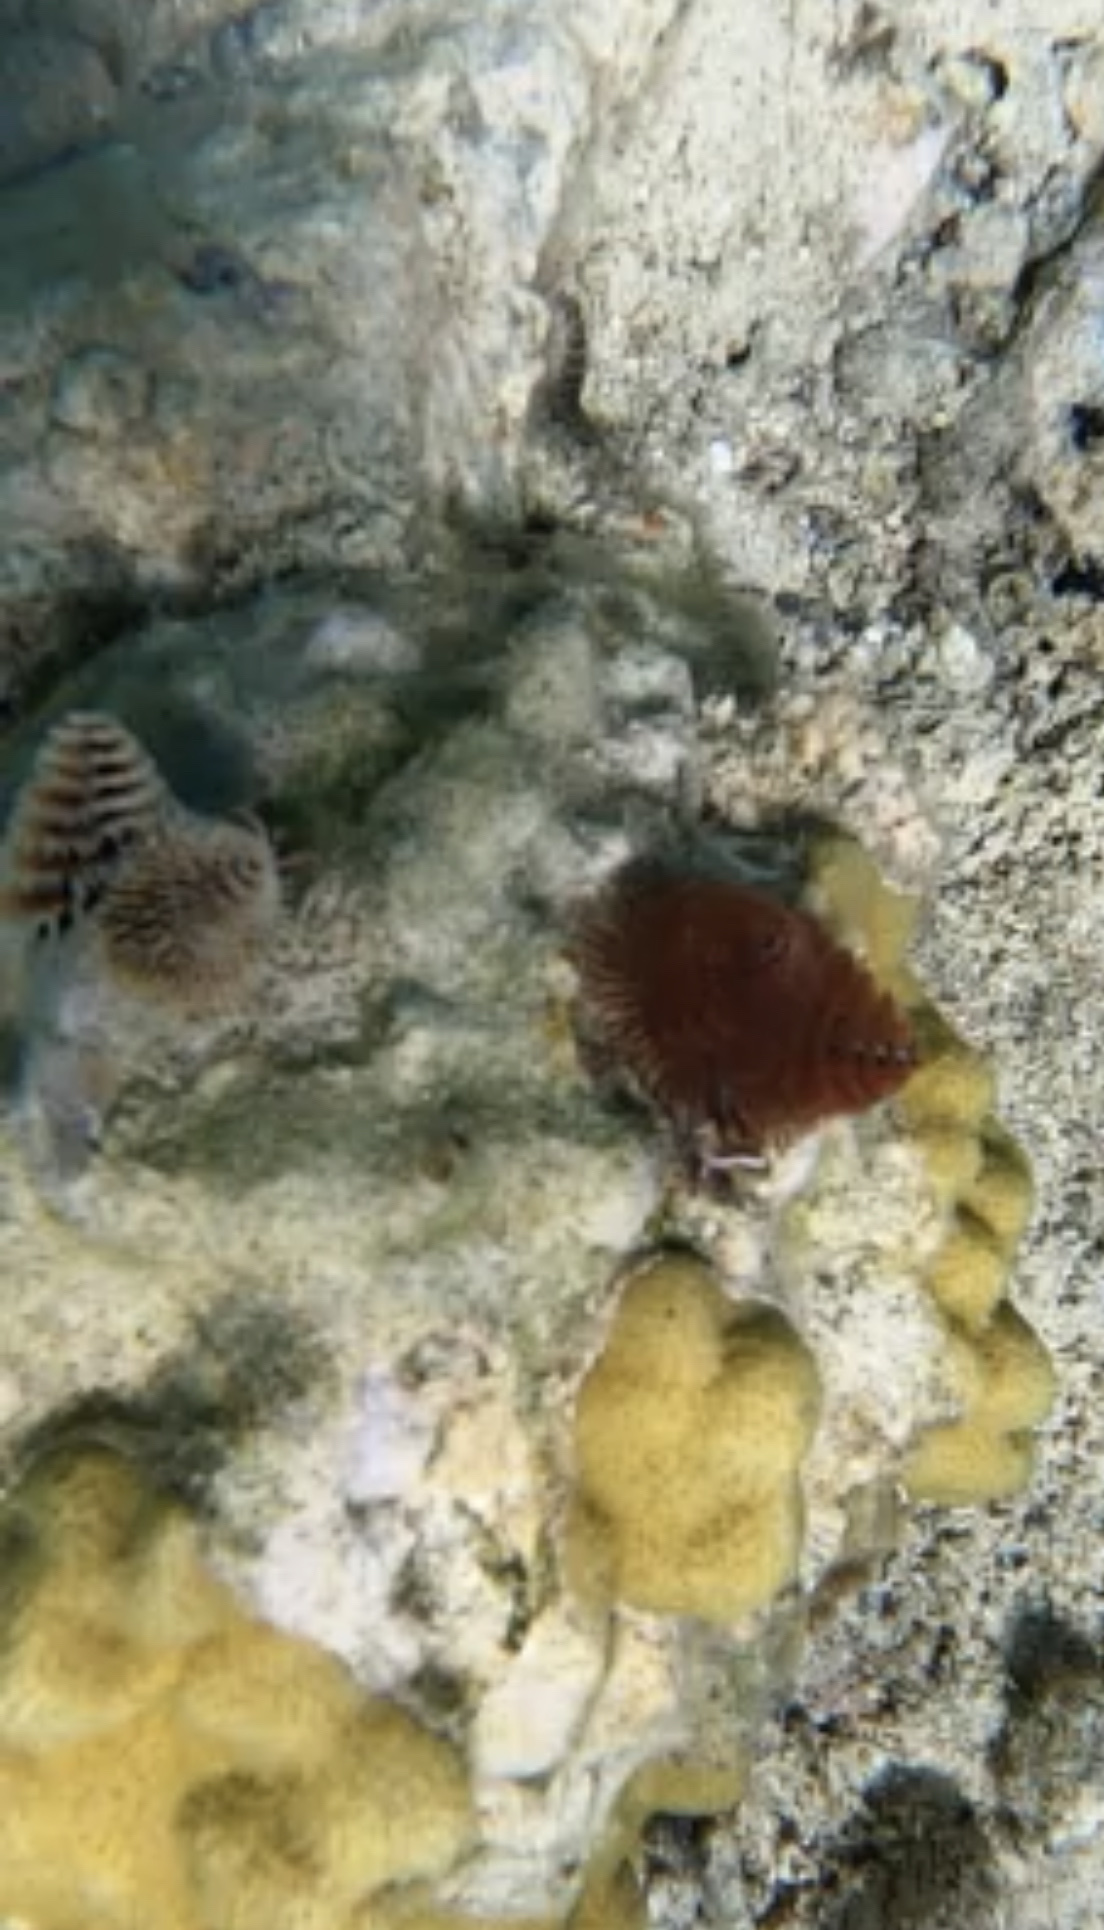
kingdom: Animalia
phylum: Annelida
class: Polychaeta
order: Sabellida
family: Serpulidae
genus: Spirobranchus
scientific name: Spirobranchus giganteus
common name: Christmas tree worm
